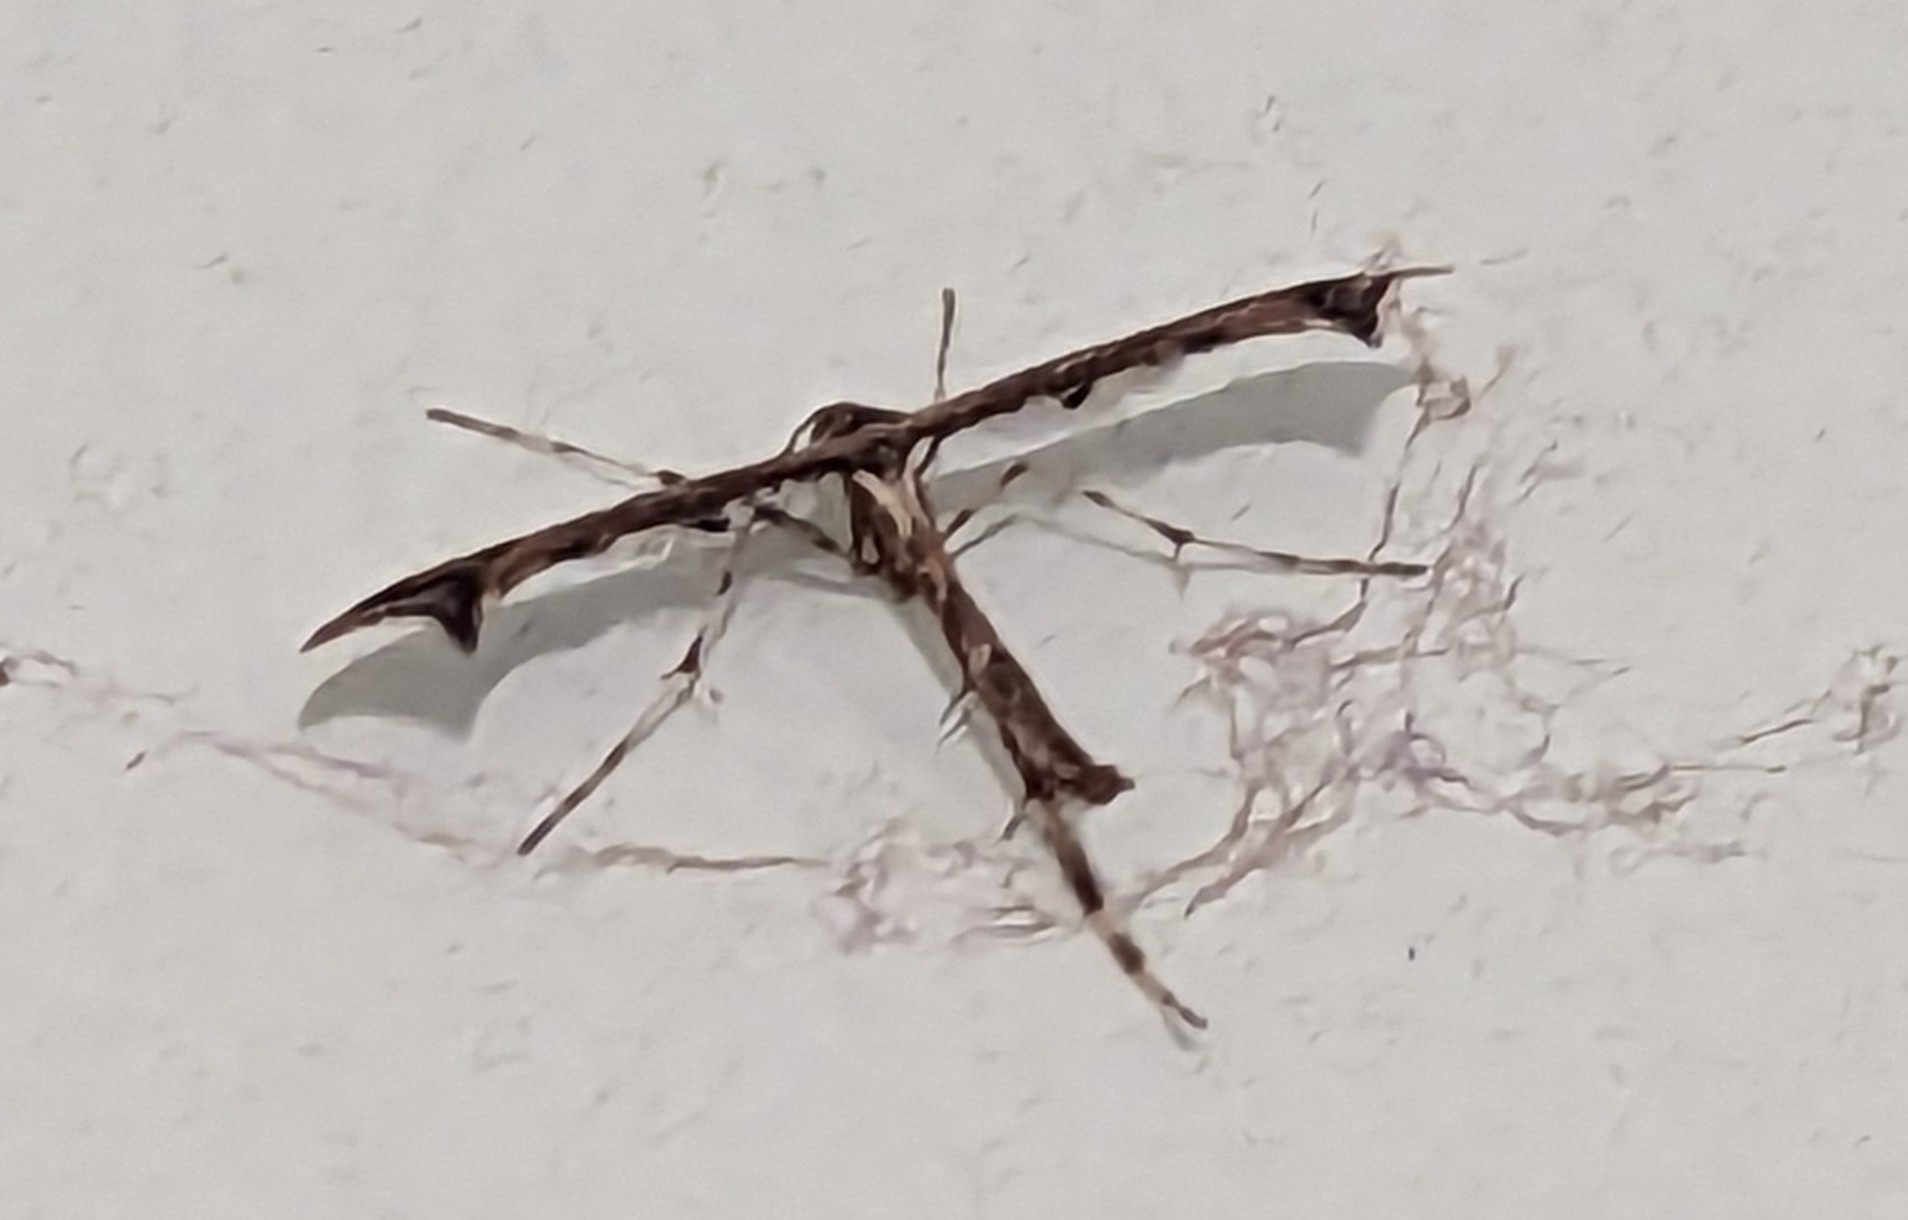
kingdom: Animalia
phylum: Arthropoda
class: Insecta
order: Lepidoptera
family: Pterophoridae
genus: Amblyptilia
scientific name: Amblyptilia acanthadactyla
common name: Beautiful plume
